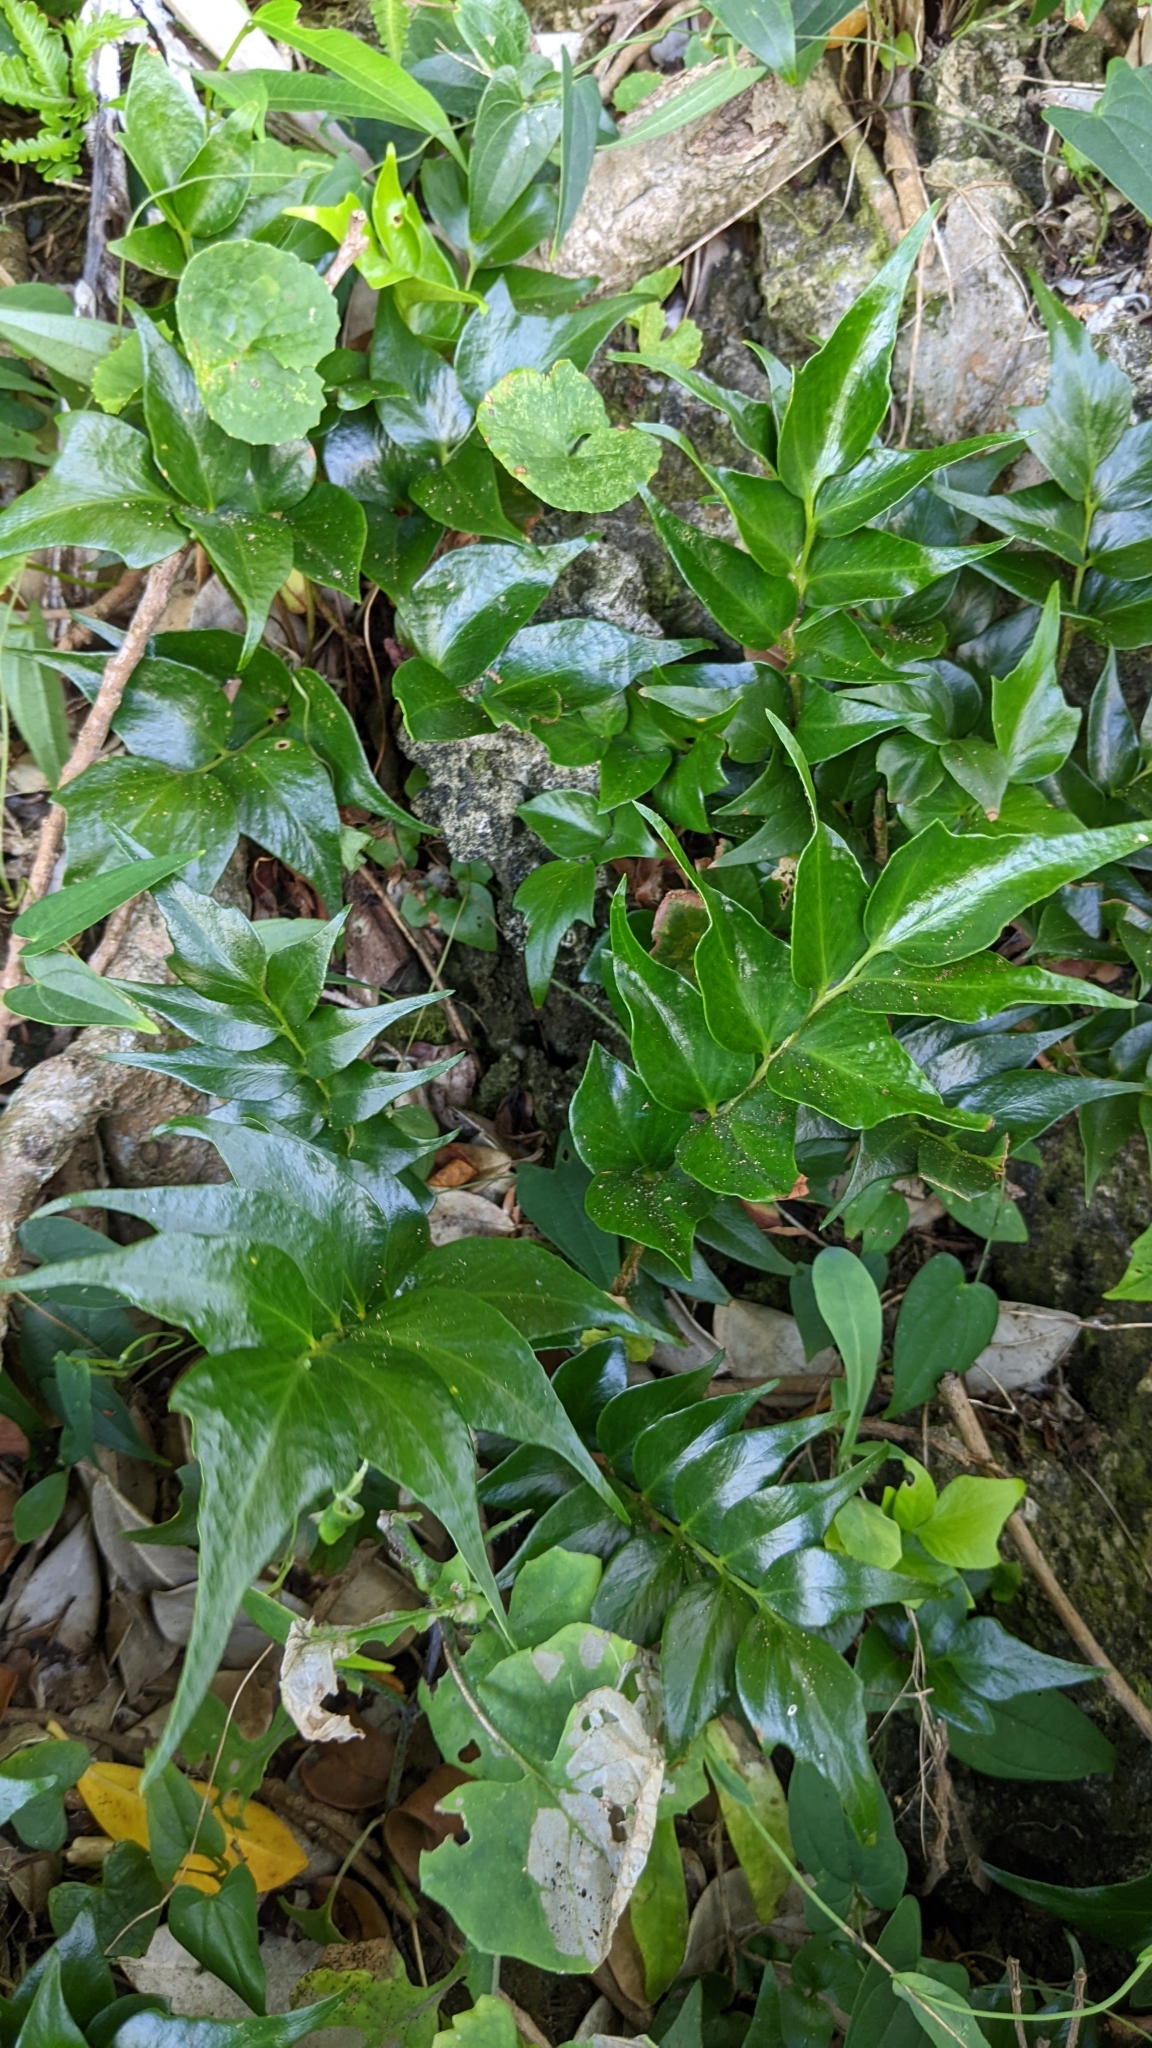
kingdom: Plantae
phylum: Tracheophyta
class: Polypodiopsida
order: Polypodiales
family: Dryopteridaceae
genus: Cyrtomium
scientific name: Cyrtomium falcatum
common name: House holly-fern
